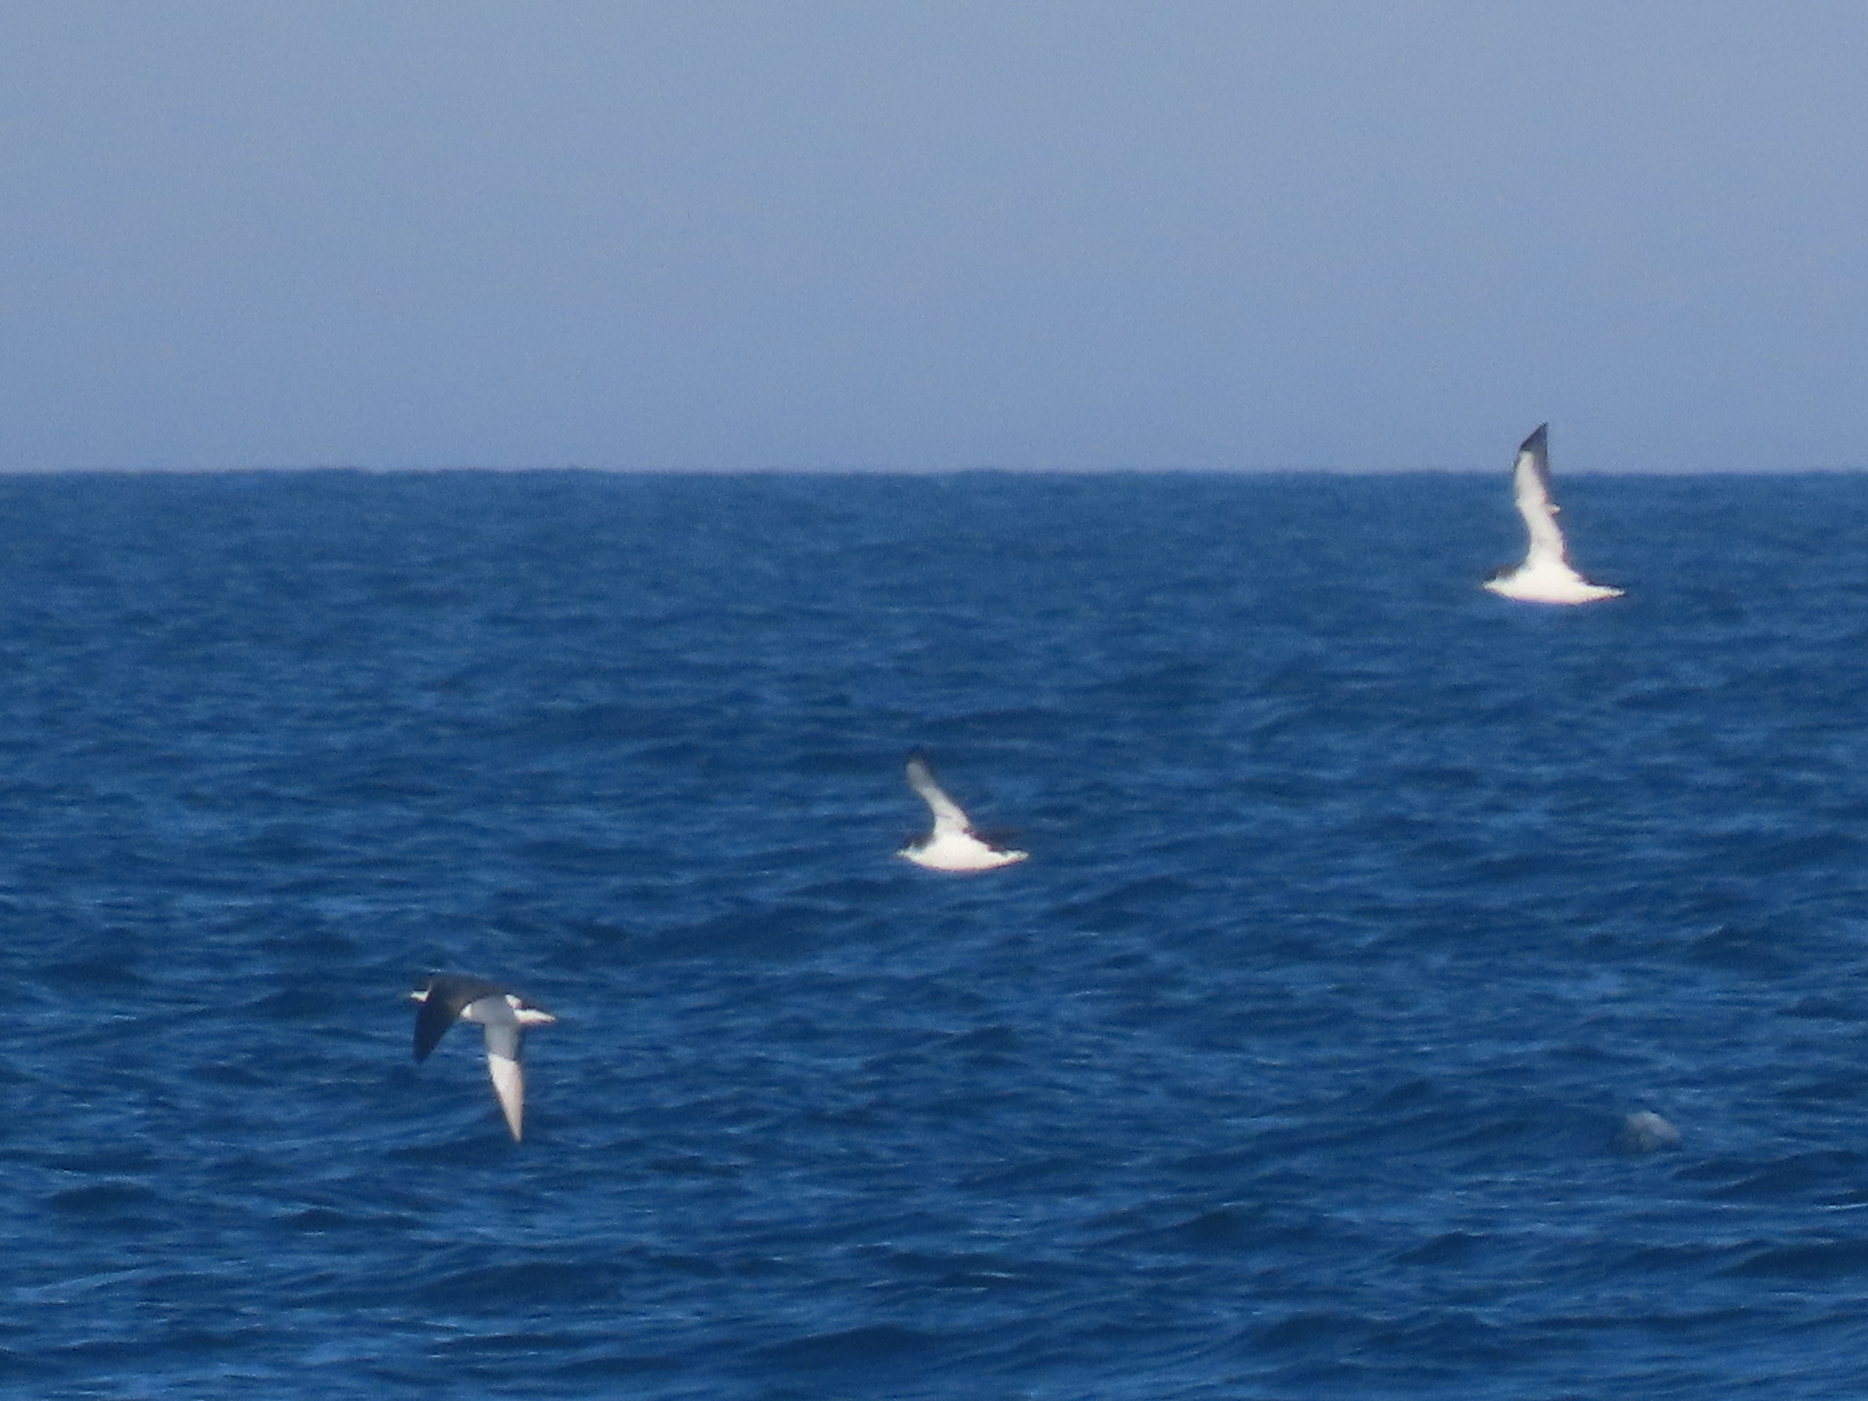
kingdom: Animalia
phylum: Chordata
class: Aves
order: Procellariiformes
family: Procellariidae
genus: Puffinus
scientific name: Puffinus puffinus
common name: Manx shearwater
